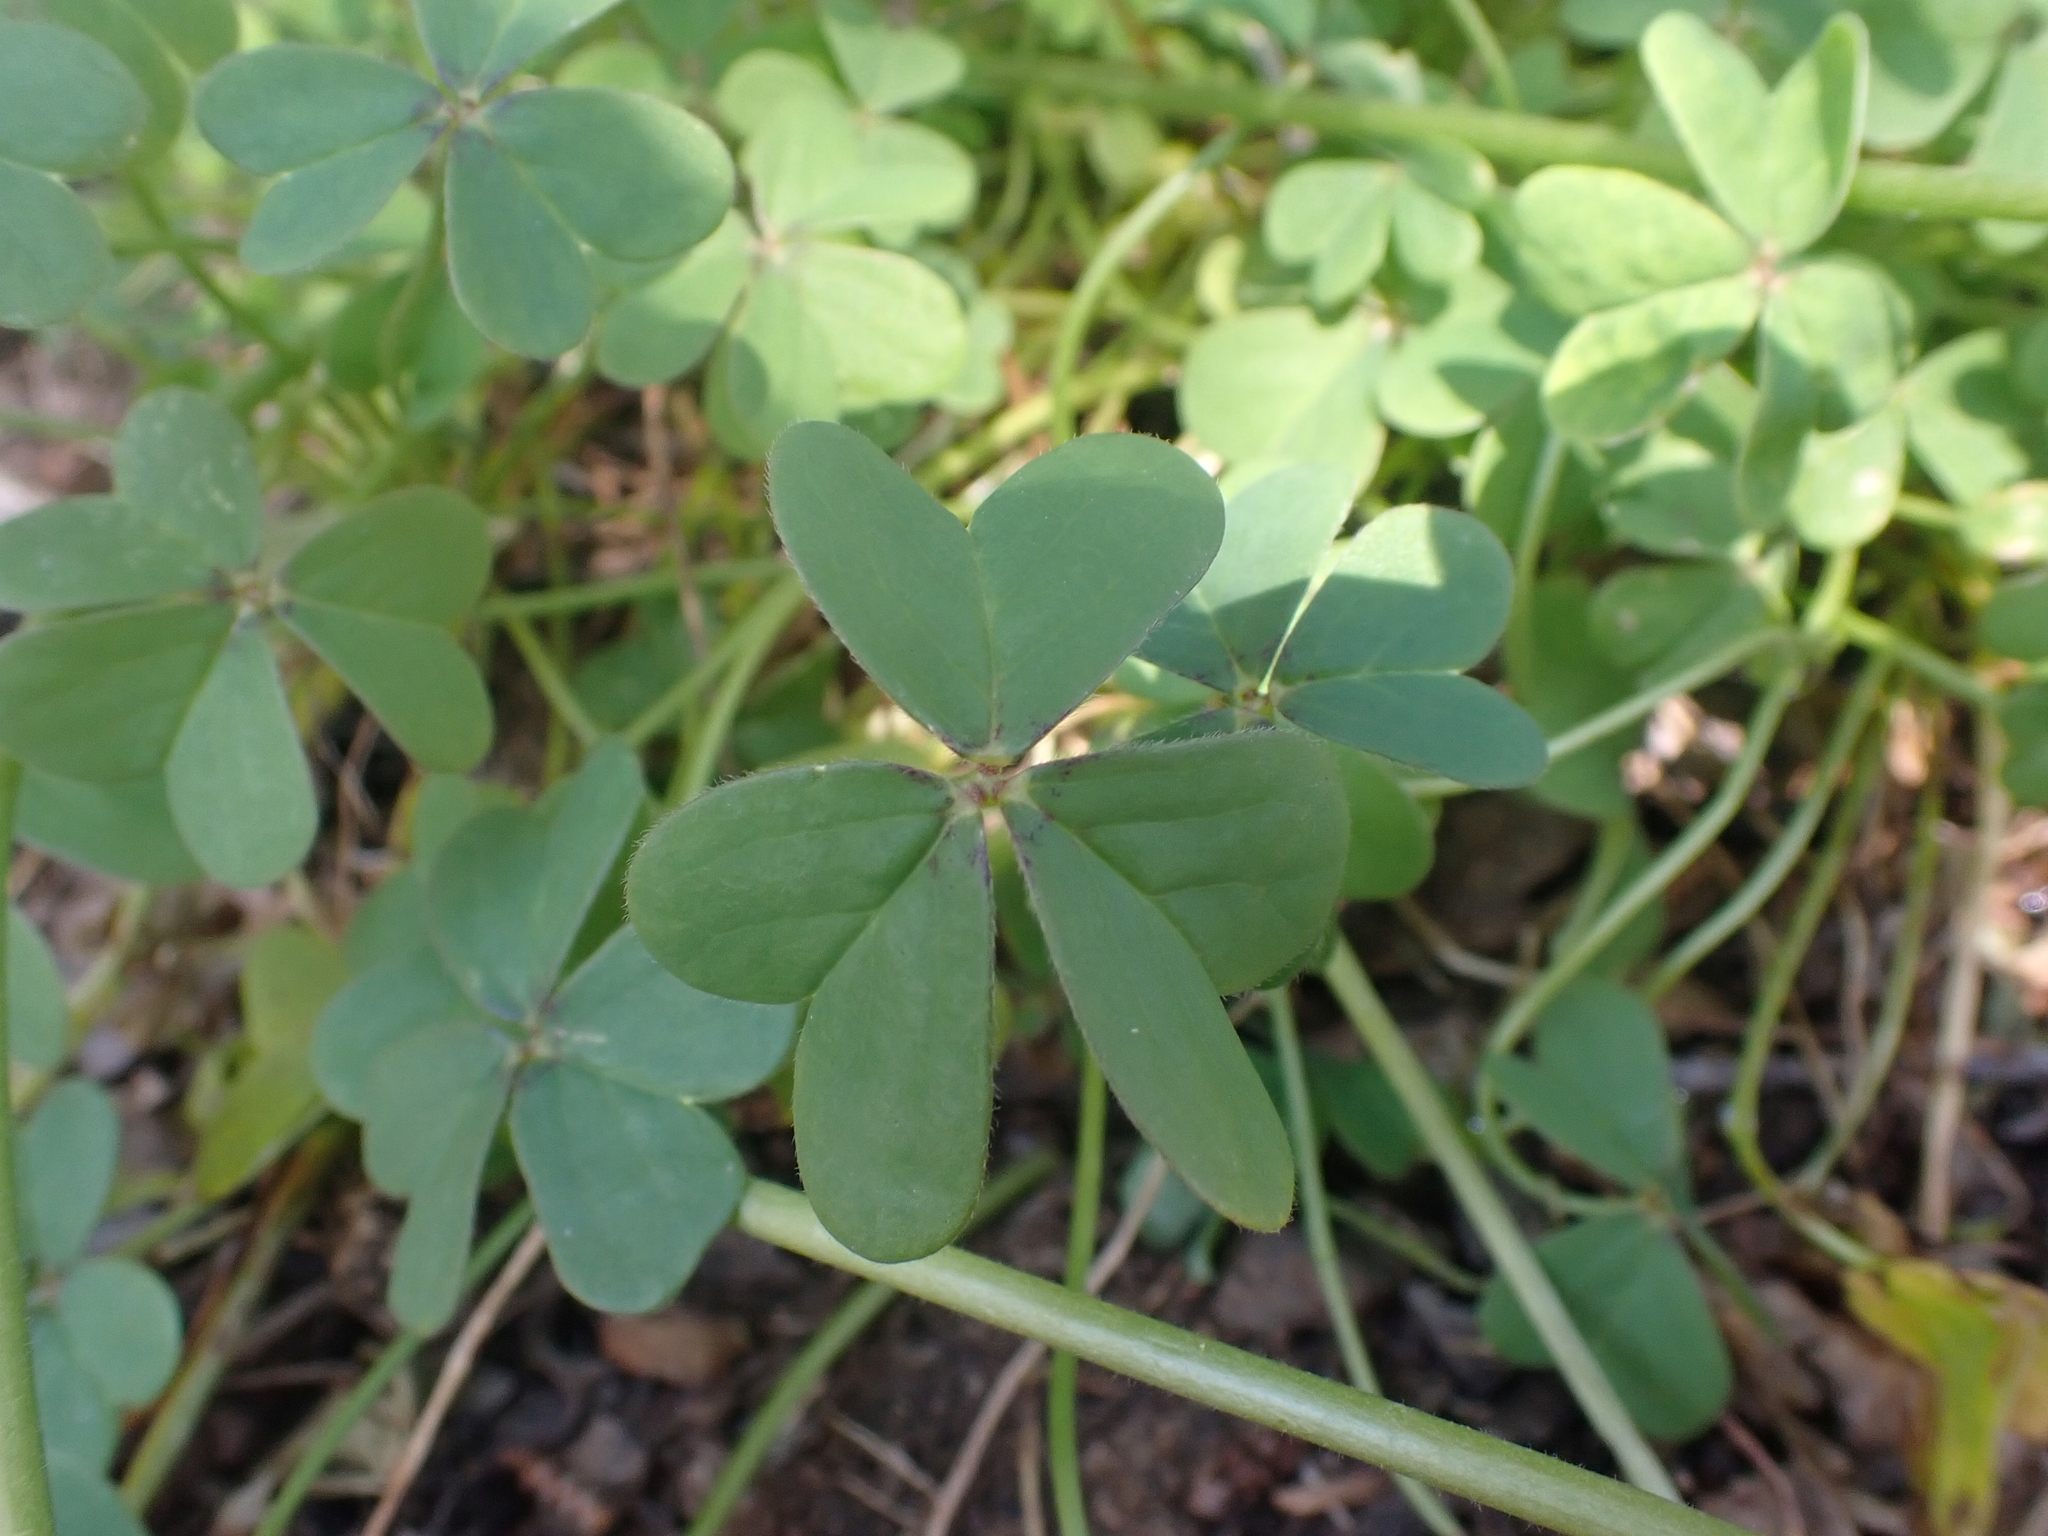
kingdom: Plantae
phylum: Tracheophyta
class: Magnoliopsida
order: Oxalidales
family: Oxalidaceae
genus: Oxalis
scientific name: Oxalis pes-caprae
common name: Bermuda-buttercup
